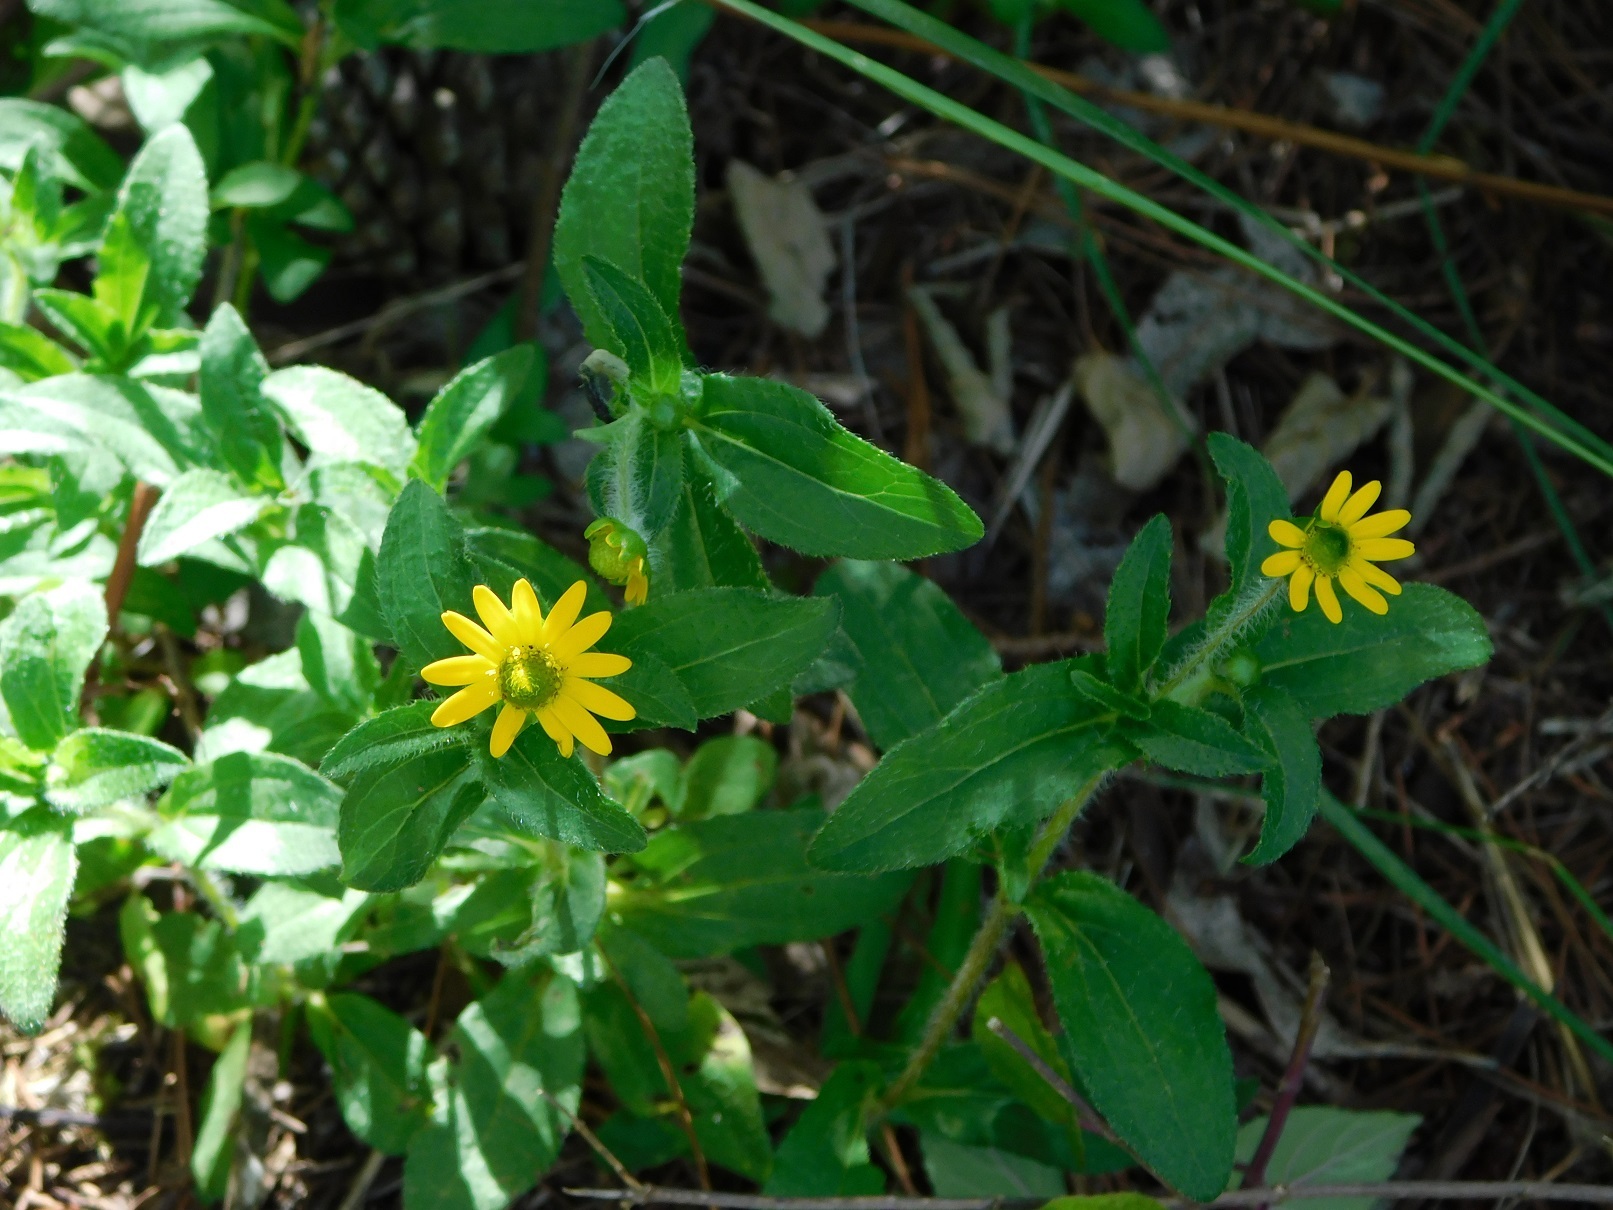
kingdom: Plantae
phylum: Tracheophyta
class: Magnoliopsida
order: Asterales
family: Asteraceae
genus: Melampodium
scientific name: Melampodium montanum
